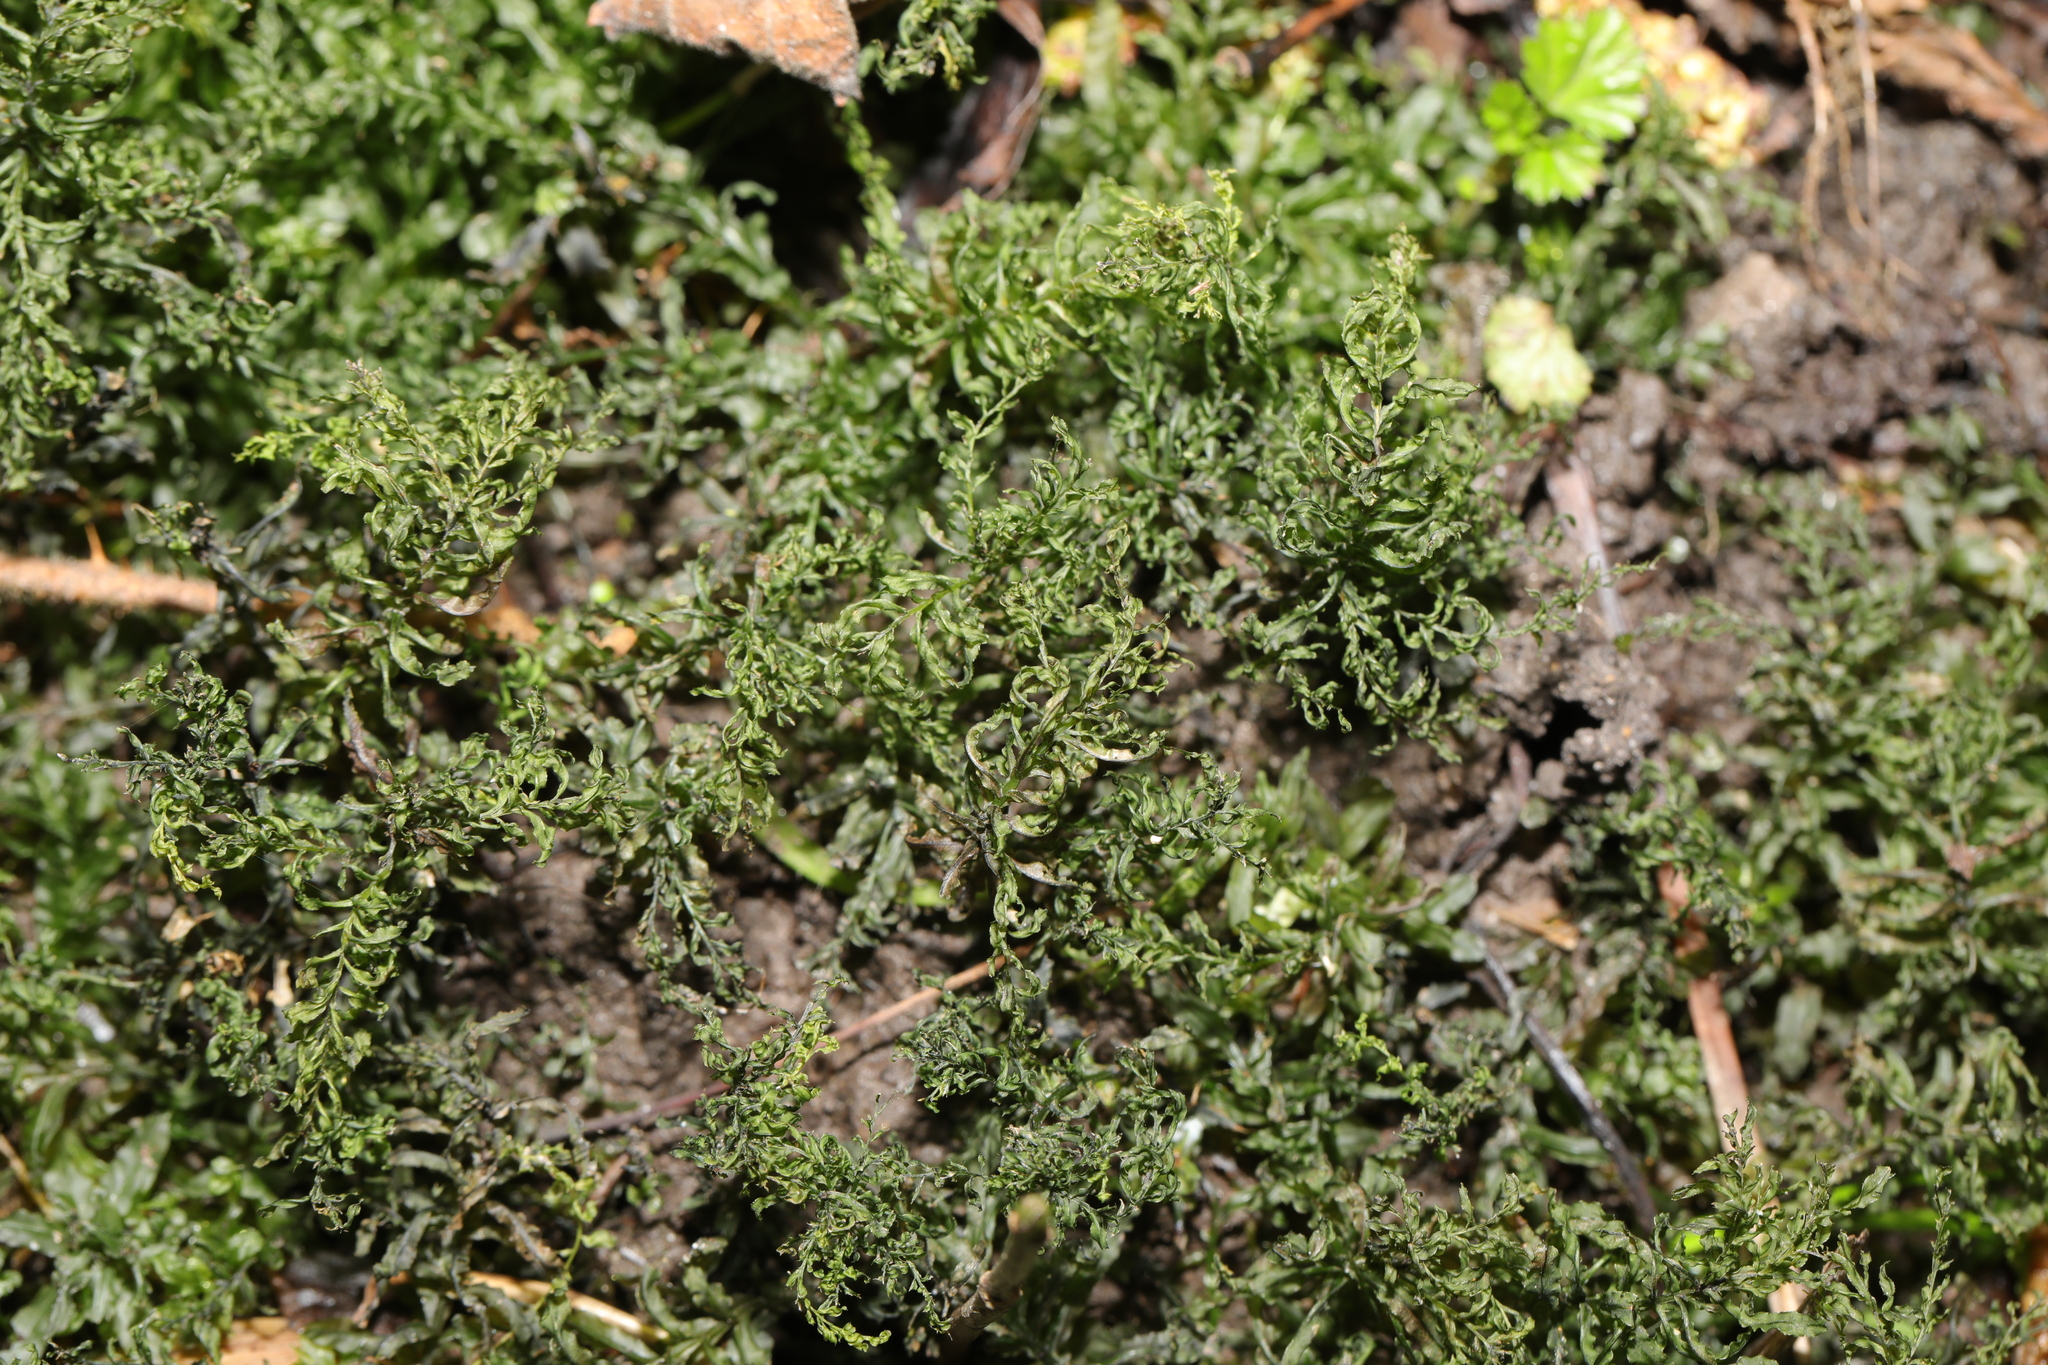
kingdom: Plantae
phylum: Bryophyta
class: Bryopsida
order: Bryales
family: Mniaceae
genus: Plagiomnium
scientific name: Plagiomnium undulatum
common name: Hart's-tongue thyme-moss
